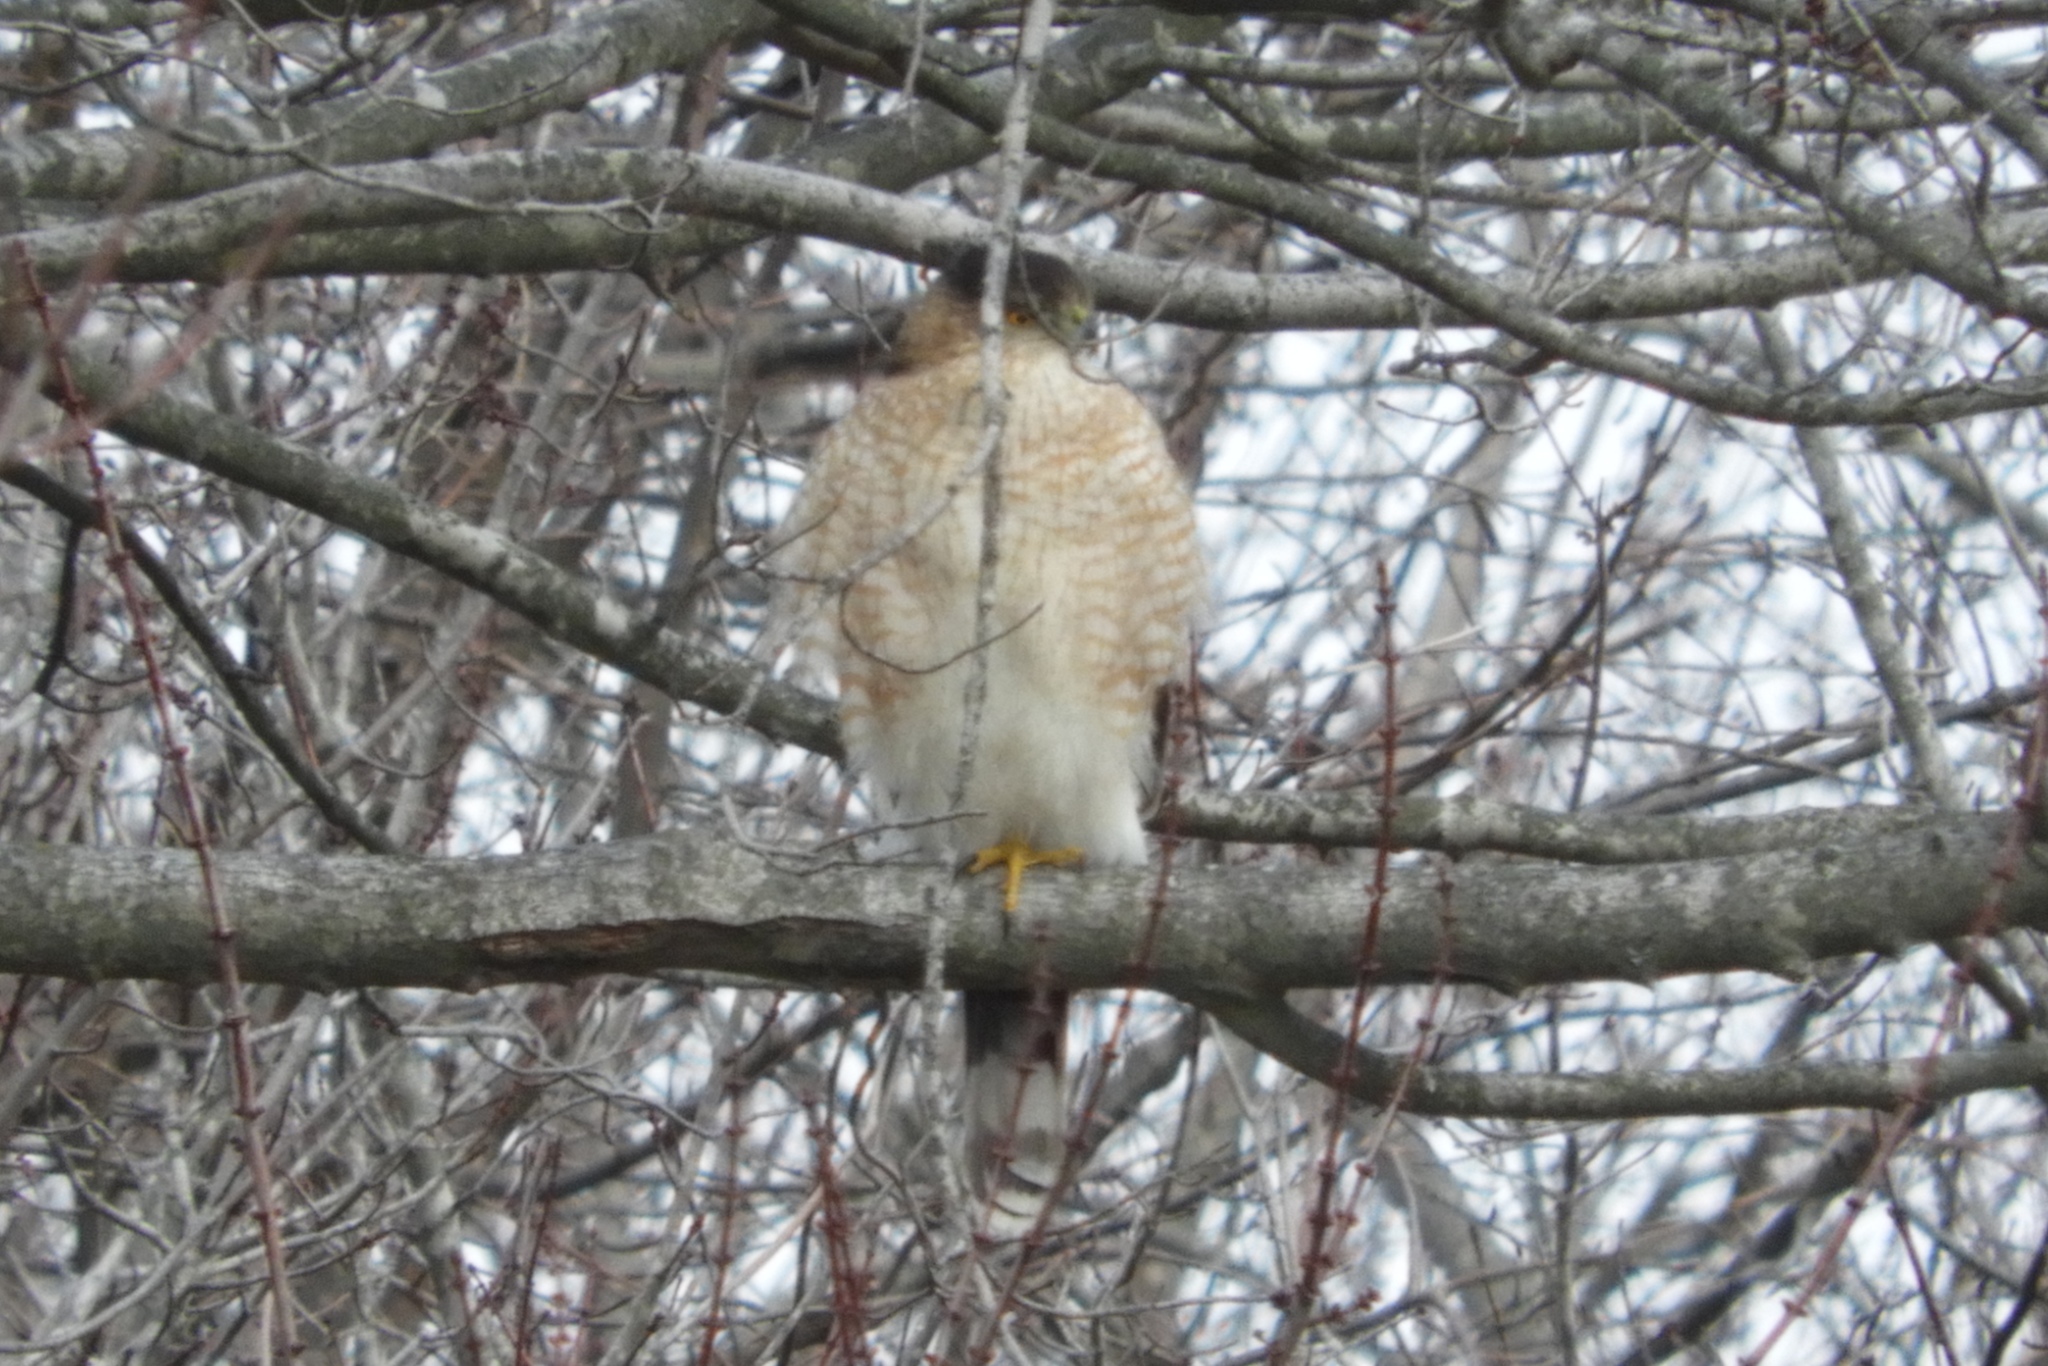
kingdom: Animalia
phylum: Chordata
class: Aves
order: Accipitriformes
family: Accipitridae
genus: Accipiter
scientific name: Accipiter cooperii
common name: Cooper's hawk
